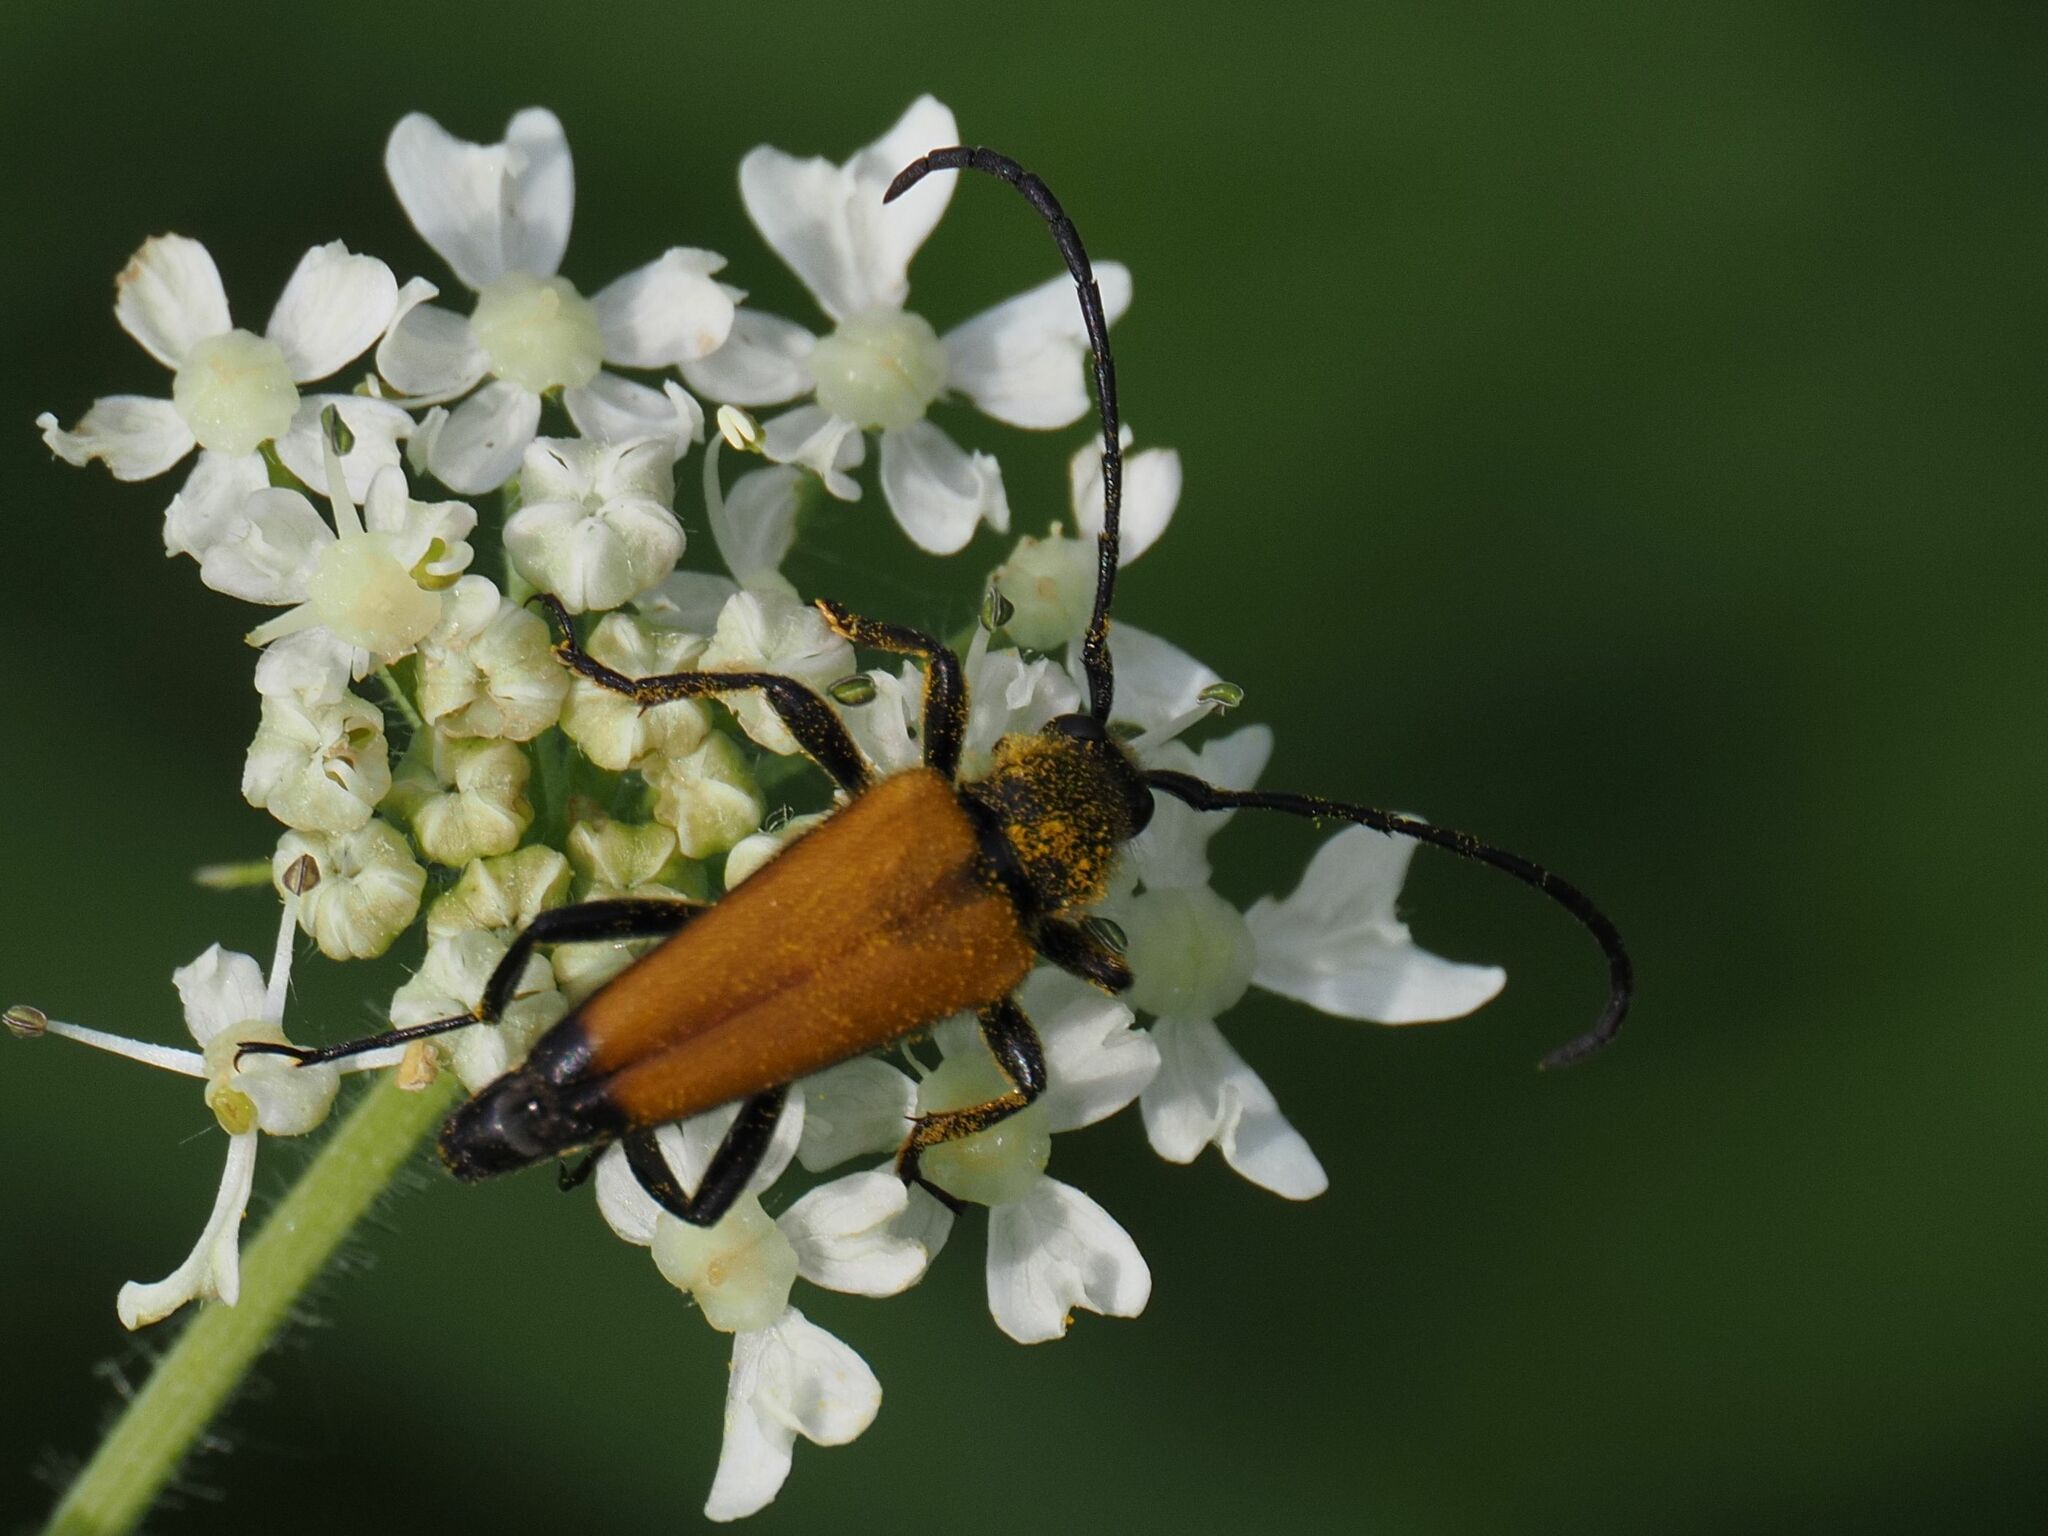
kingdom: Animalia
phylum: Arthropoda
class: Insecta
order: Coleoptera
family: Cerambycidae
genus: Paracorymbia
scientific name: Paracorymbia fulva
